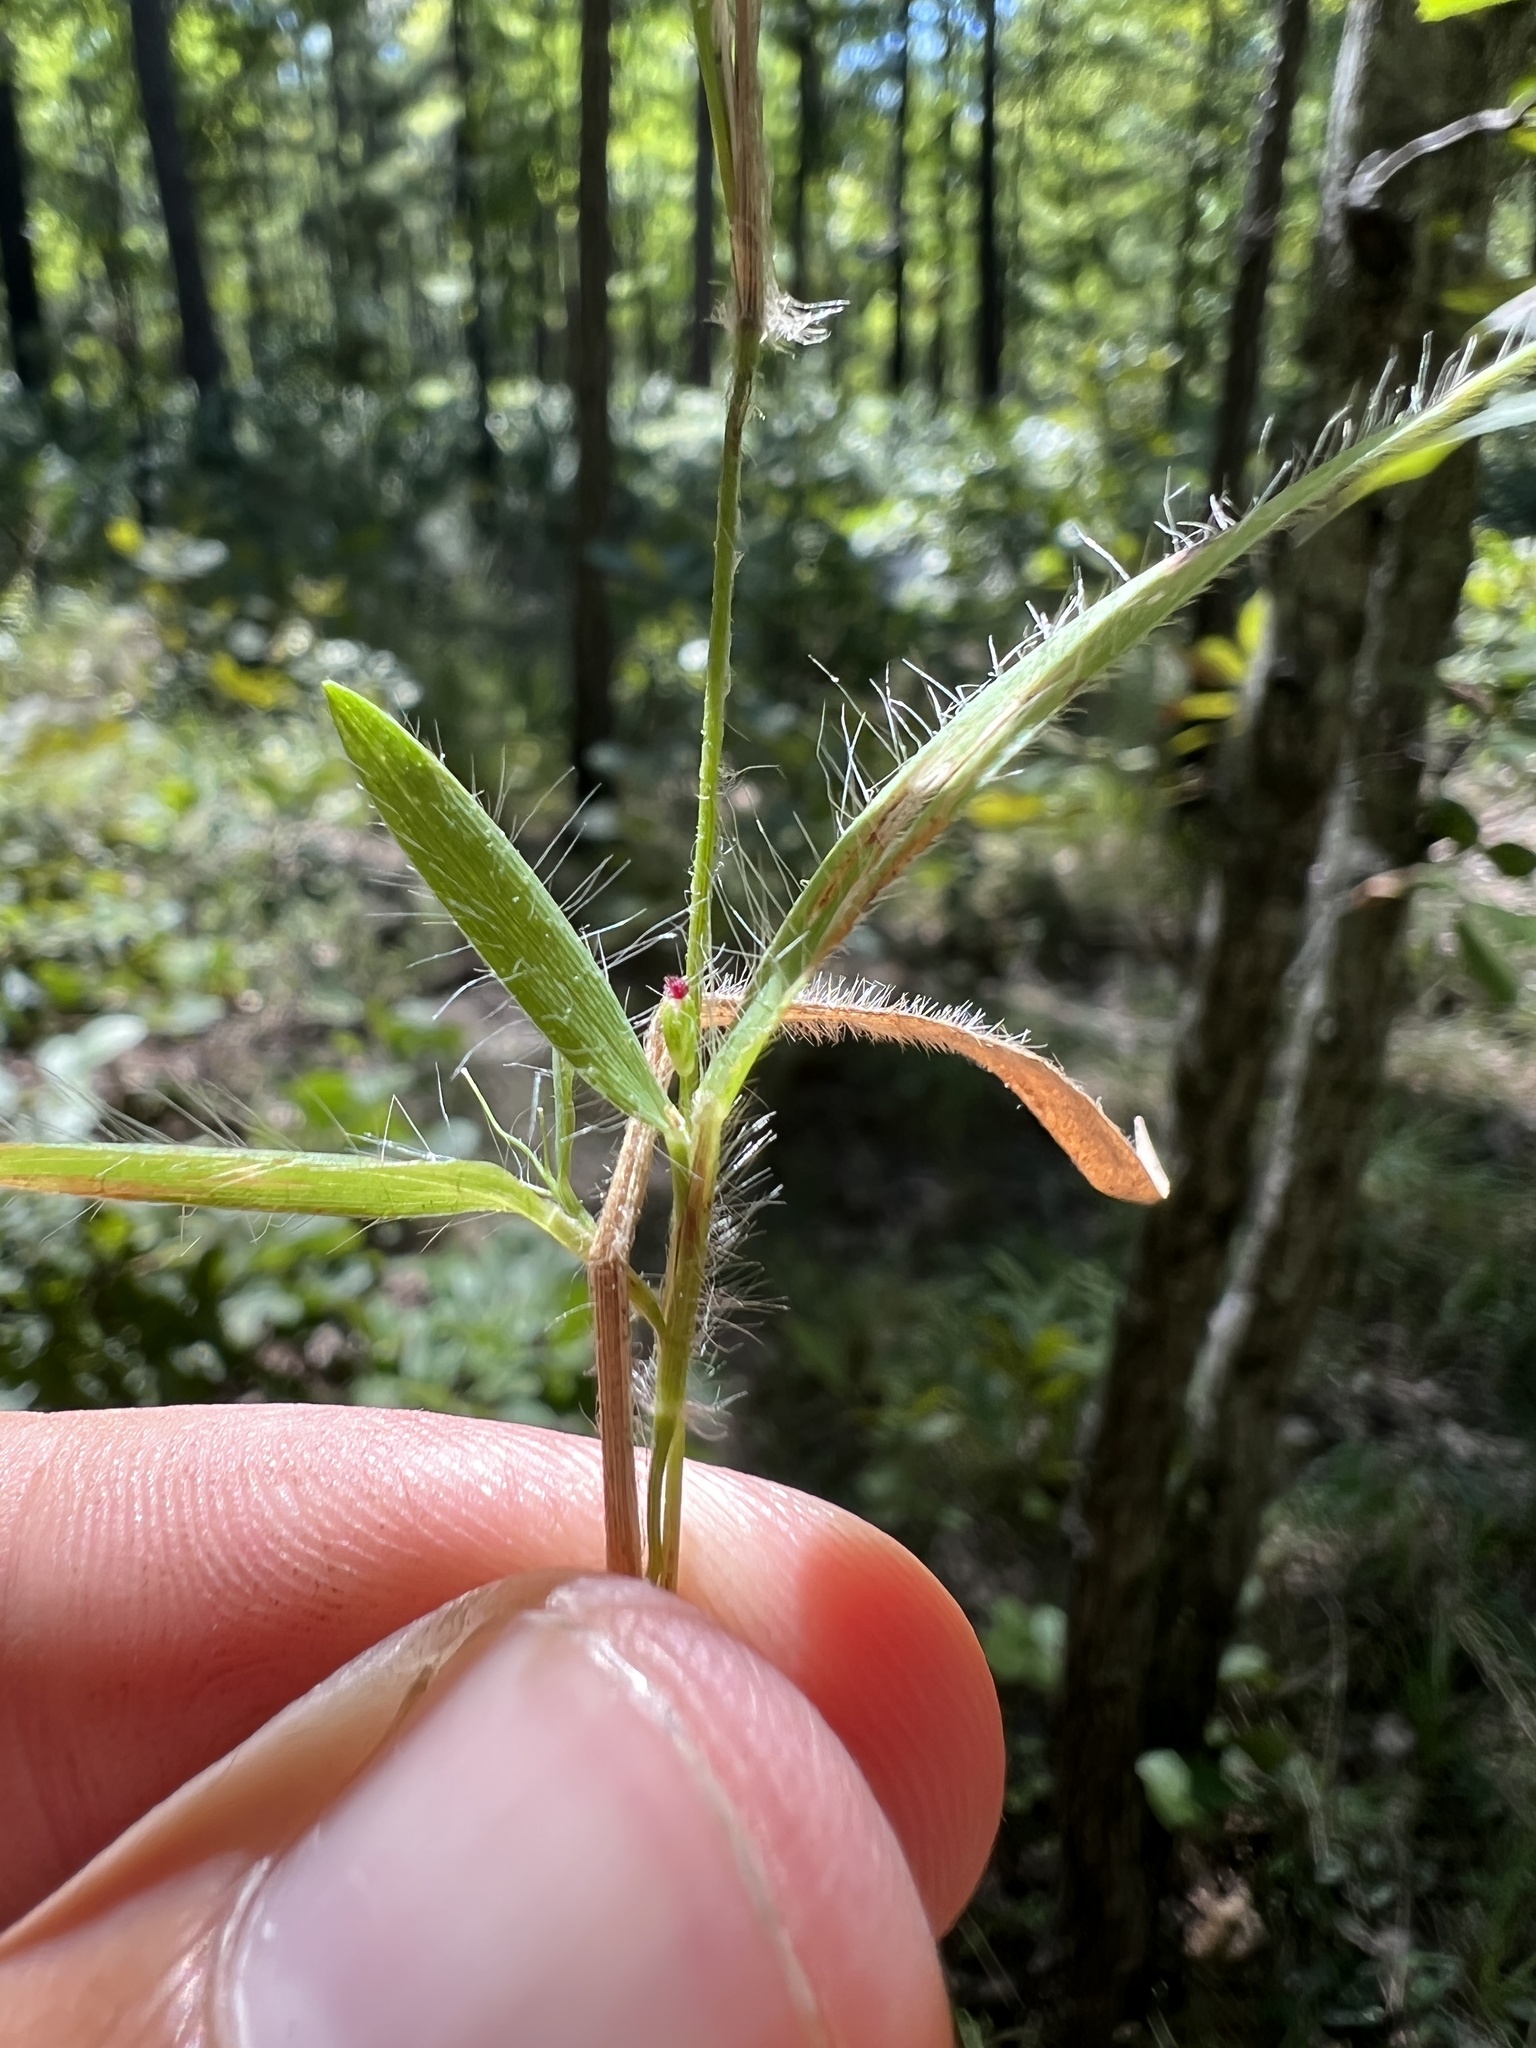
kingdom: Plantae
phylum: Tracheophyta
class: Liliopsida
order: Poales
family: Poaceae
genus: Dichanthelium
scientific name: Dichanthelium villosissimum
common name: White-haired panicgrass
